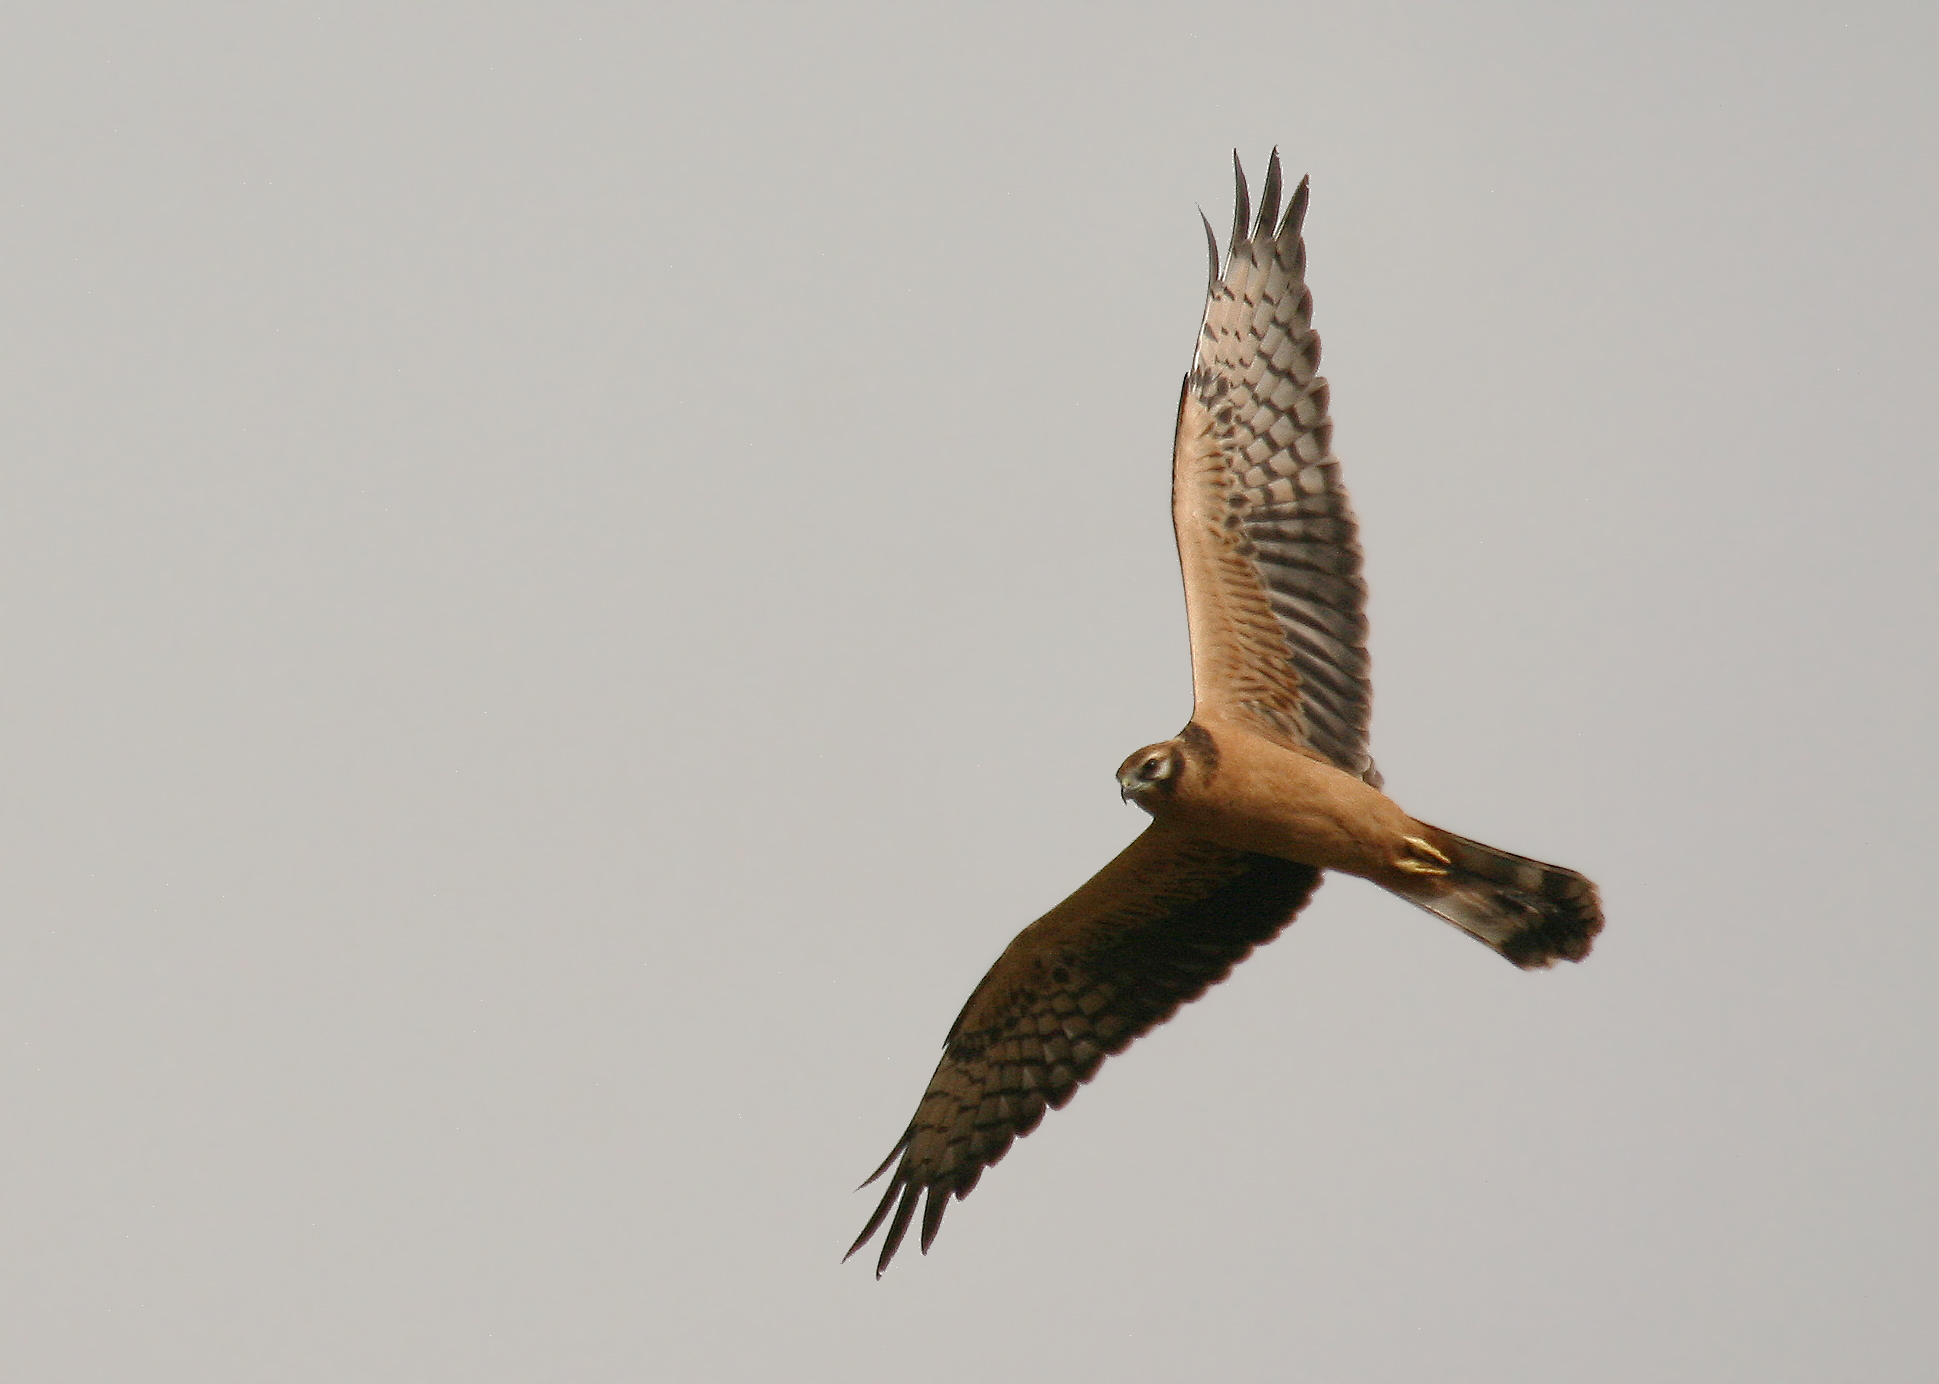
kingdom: Animalia
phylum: Chordata
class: Aves
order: Accipitriformes
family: Accipitridae
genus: Circus
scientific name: Circus pygargus
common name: Montagu's harrier
